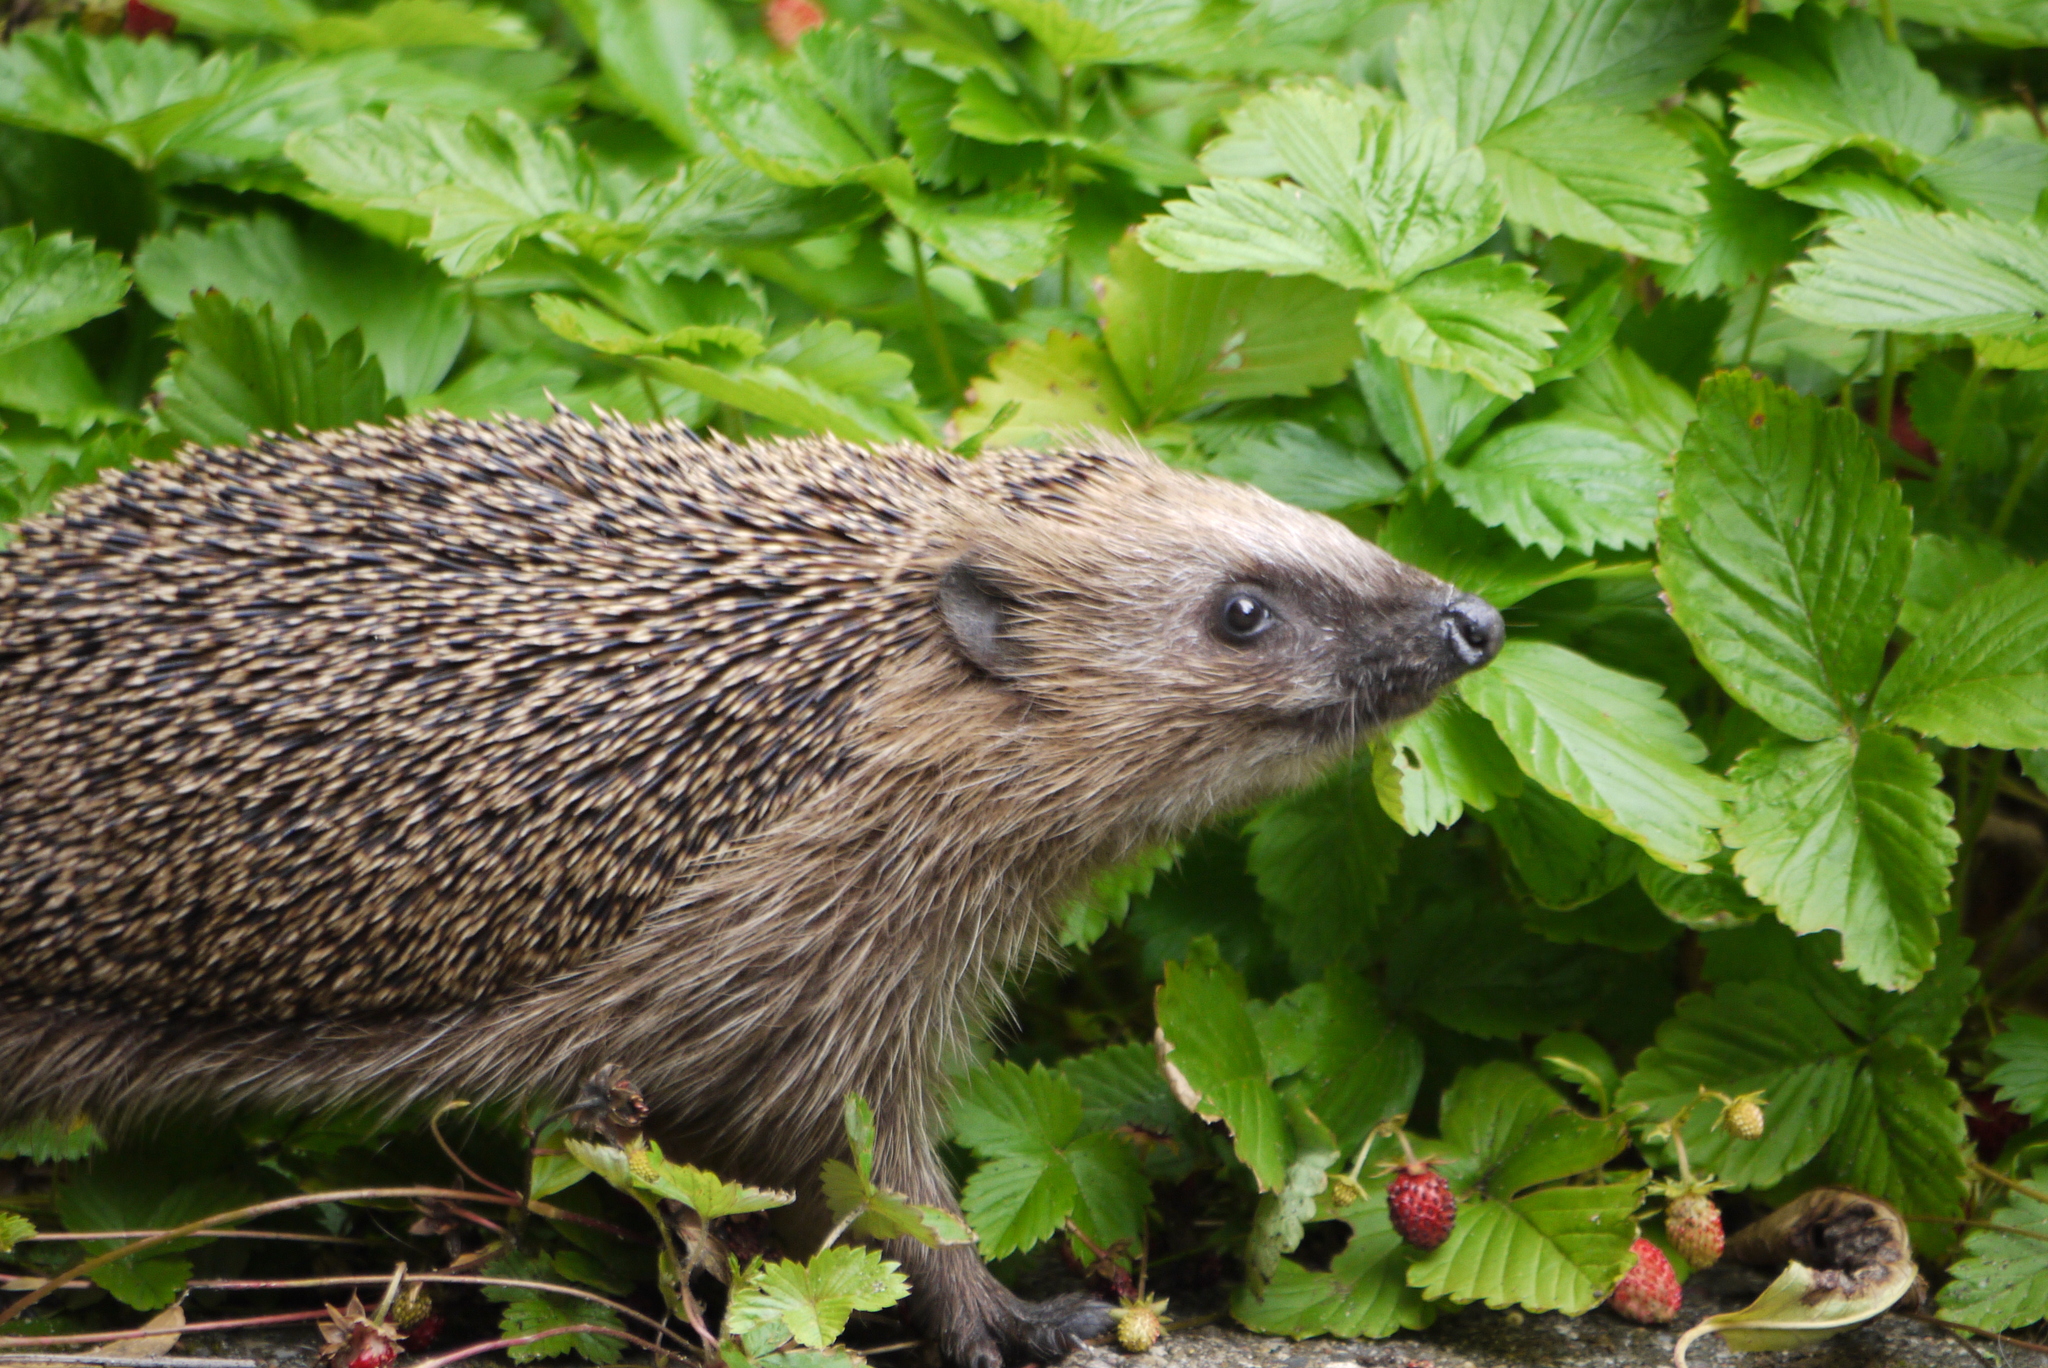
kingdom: Animalia
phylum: Chordata
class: Mammalia
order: Erinaceomorpha
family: Erinaceidae
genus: Erinaceus
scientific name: Erinaceus europaeus
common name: West european hedgehog
